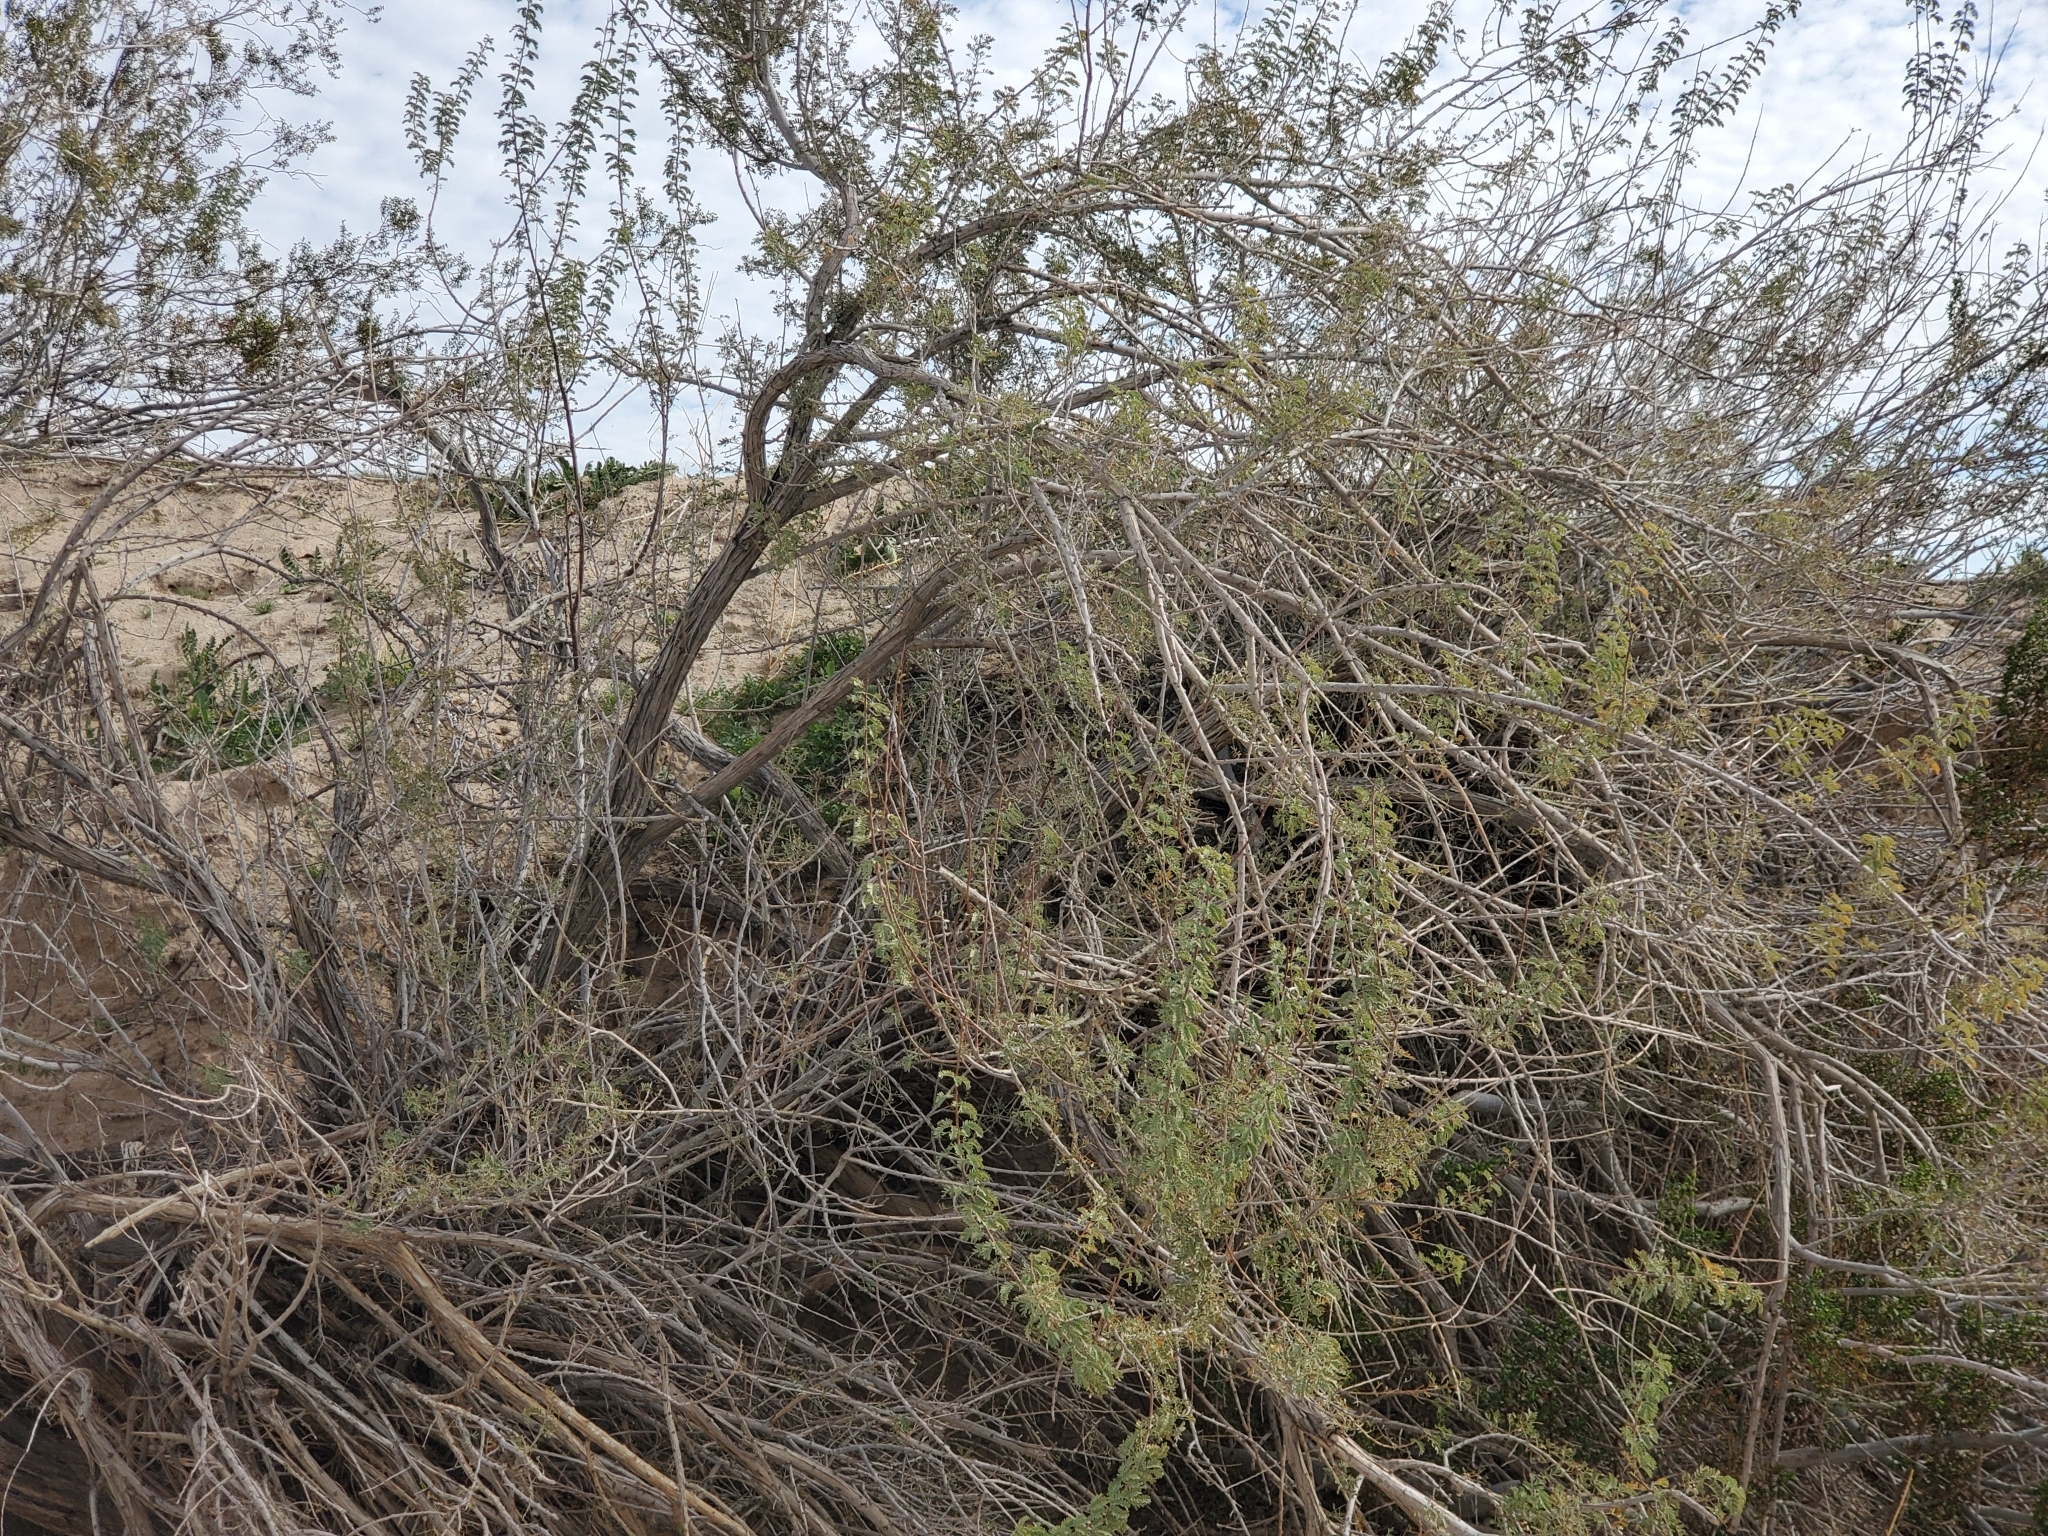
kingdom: Plantae
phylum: Tracheophyta
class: Magnoliopsida
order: Fabales
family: Fabaceae
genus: Senegalia
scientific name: Senegalia greggii
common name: Texas-mimosa
